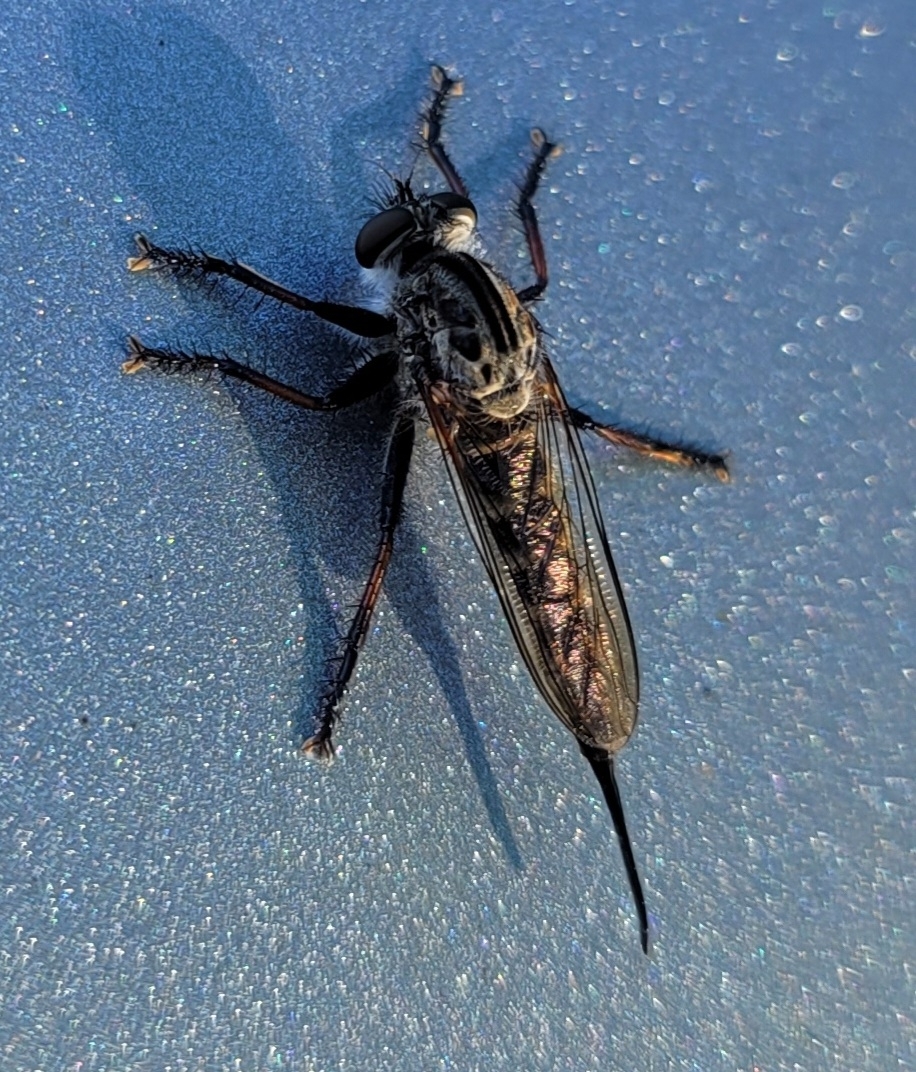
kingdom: Animalia
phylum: Arthropoda
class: Insecta
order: Diptera
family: Asilidae
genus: Efferia
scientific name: Efferia aestuans
